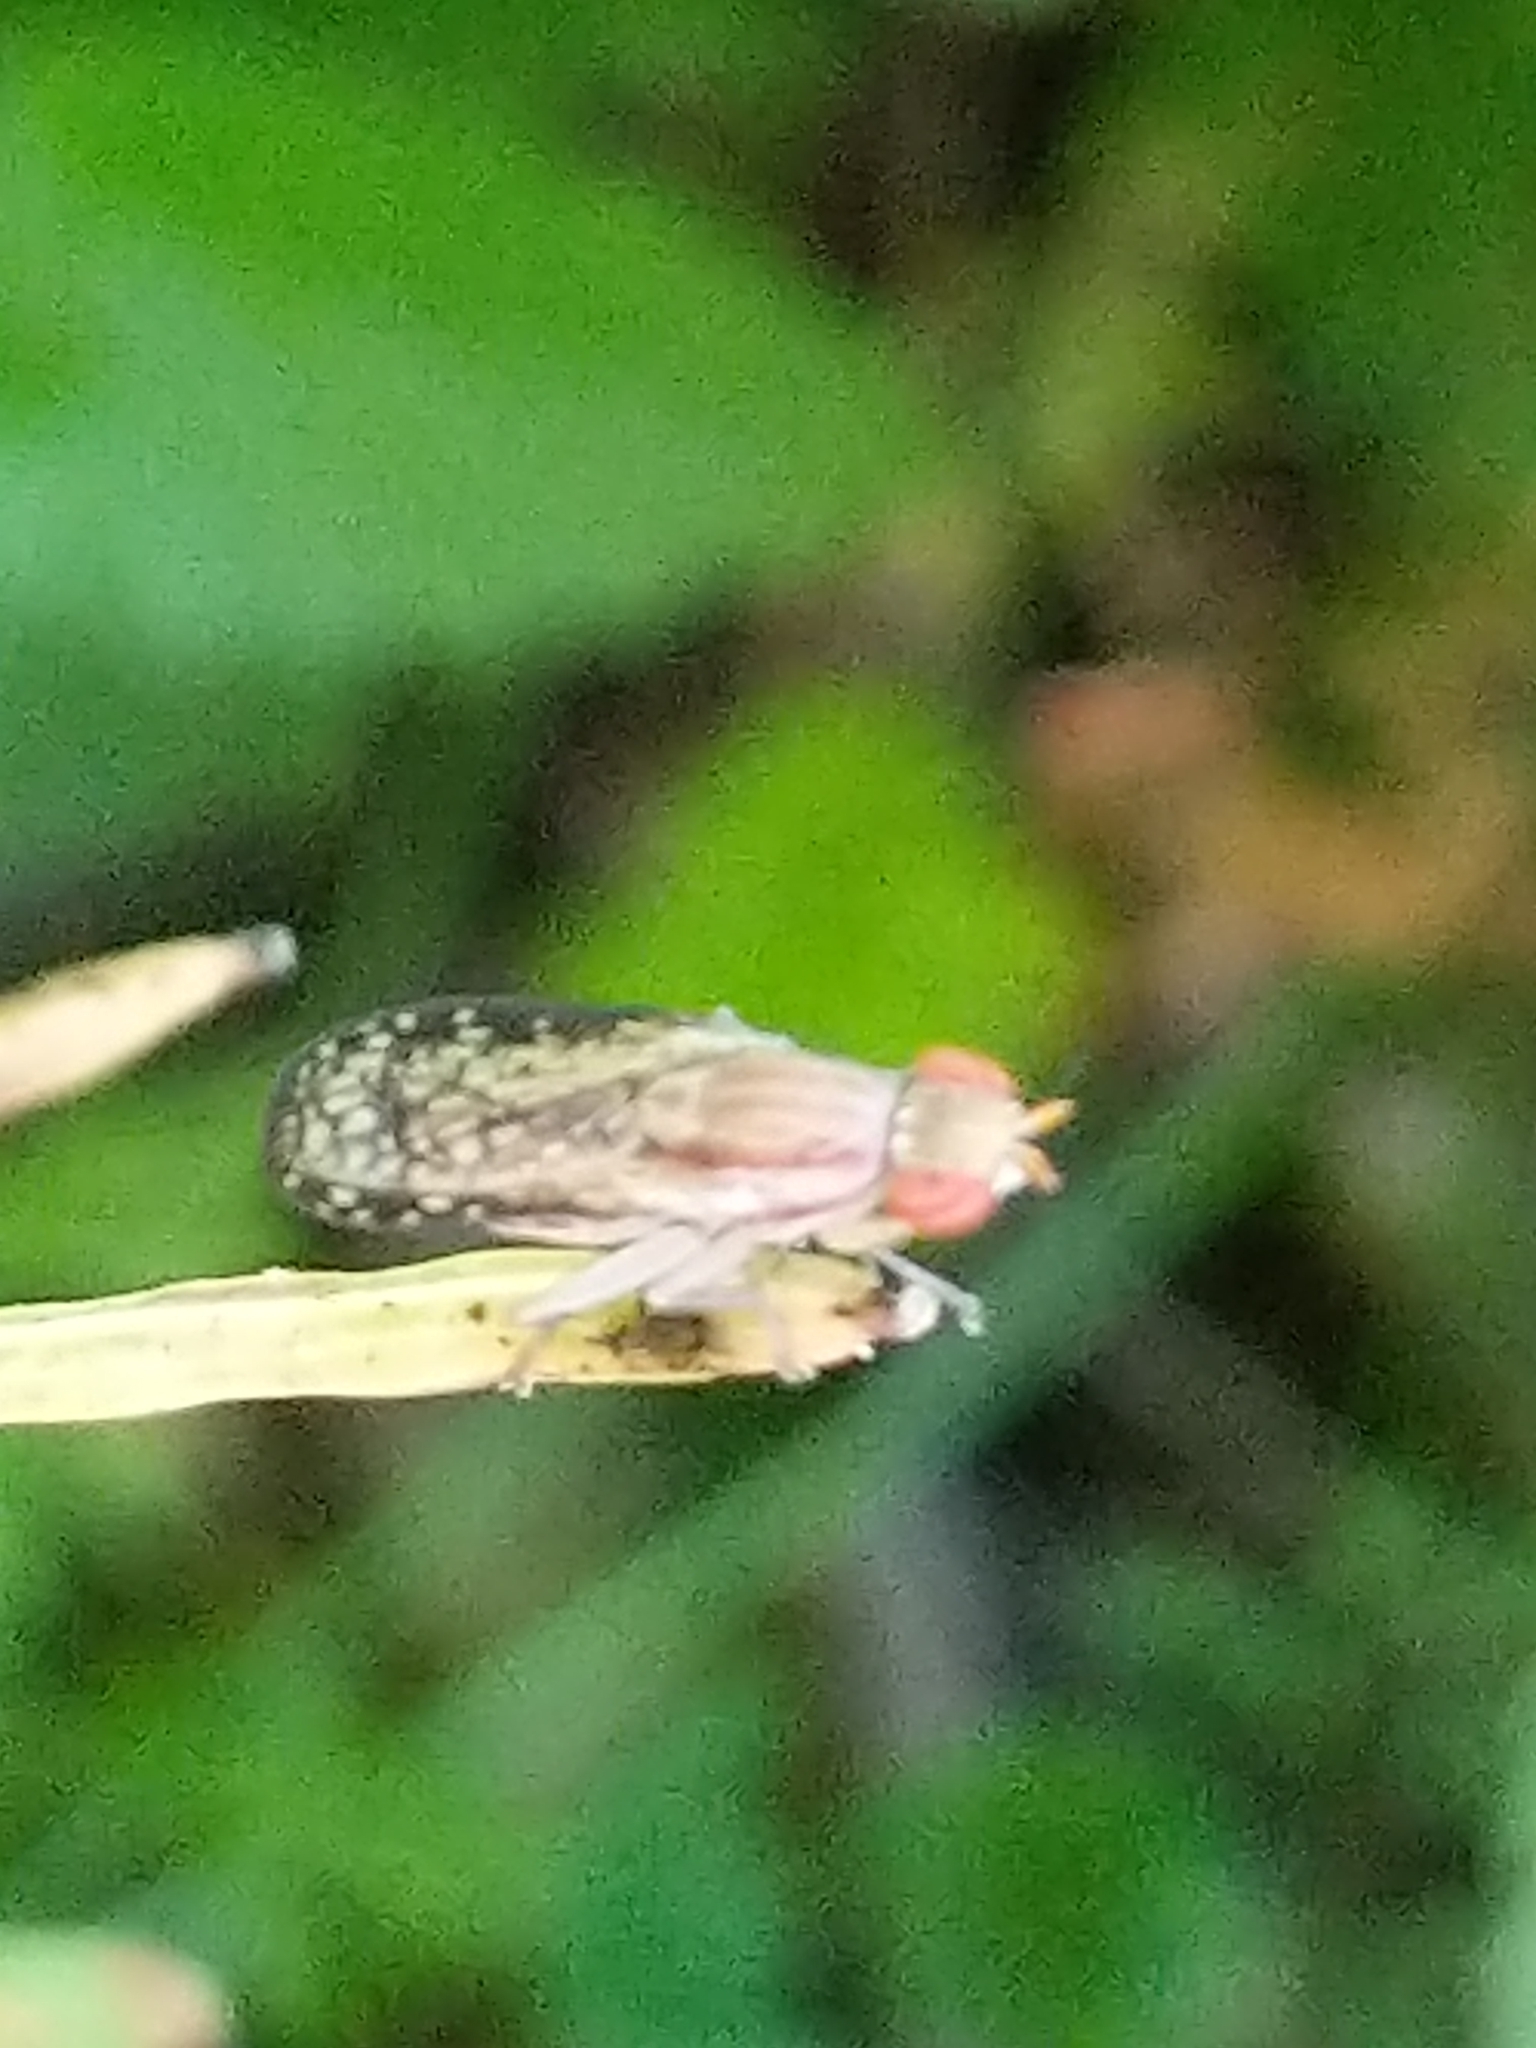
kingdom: Animalia
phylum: Arthropoda
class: Insecta
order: Diptera
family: Sciomyzidae
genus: Trypetoptera
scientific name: Trypetoptera canadensis
